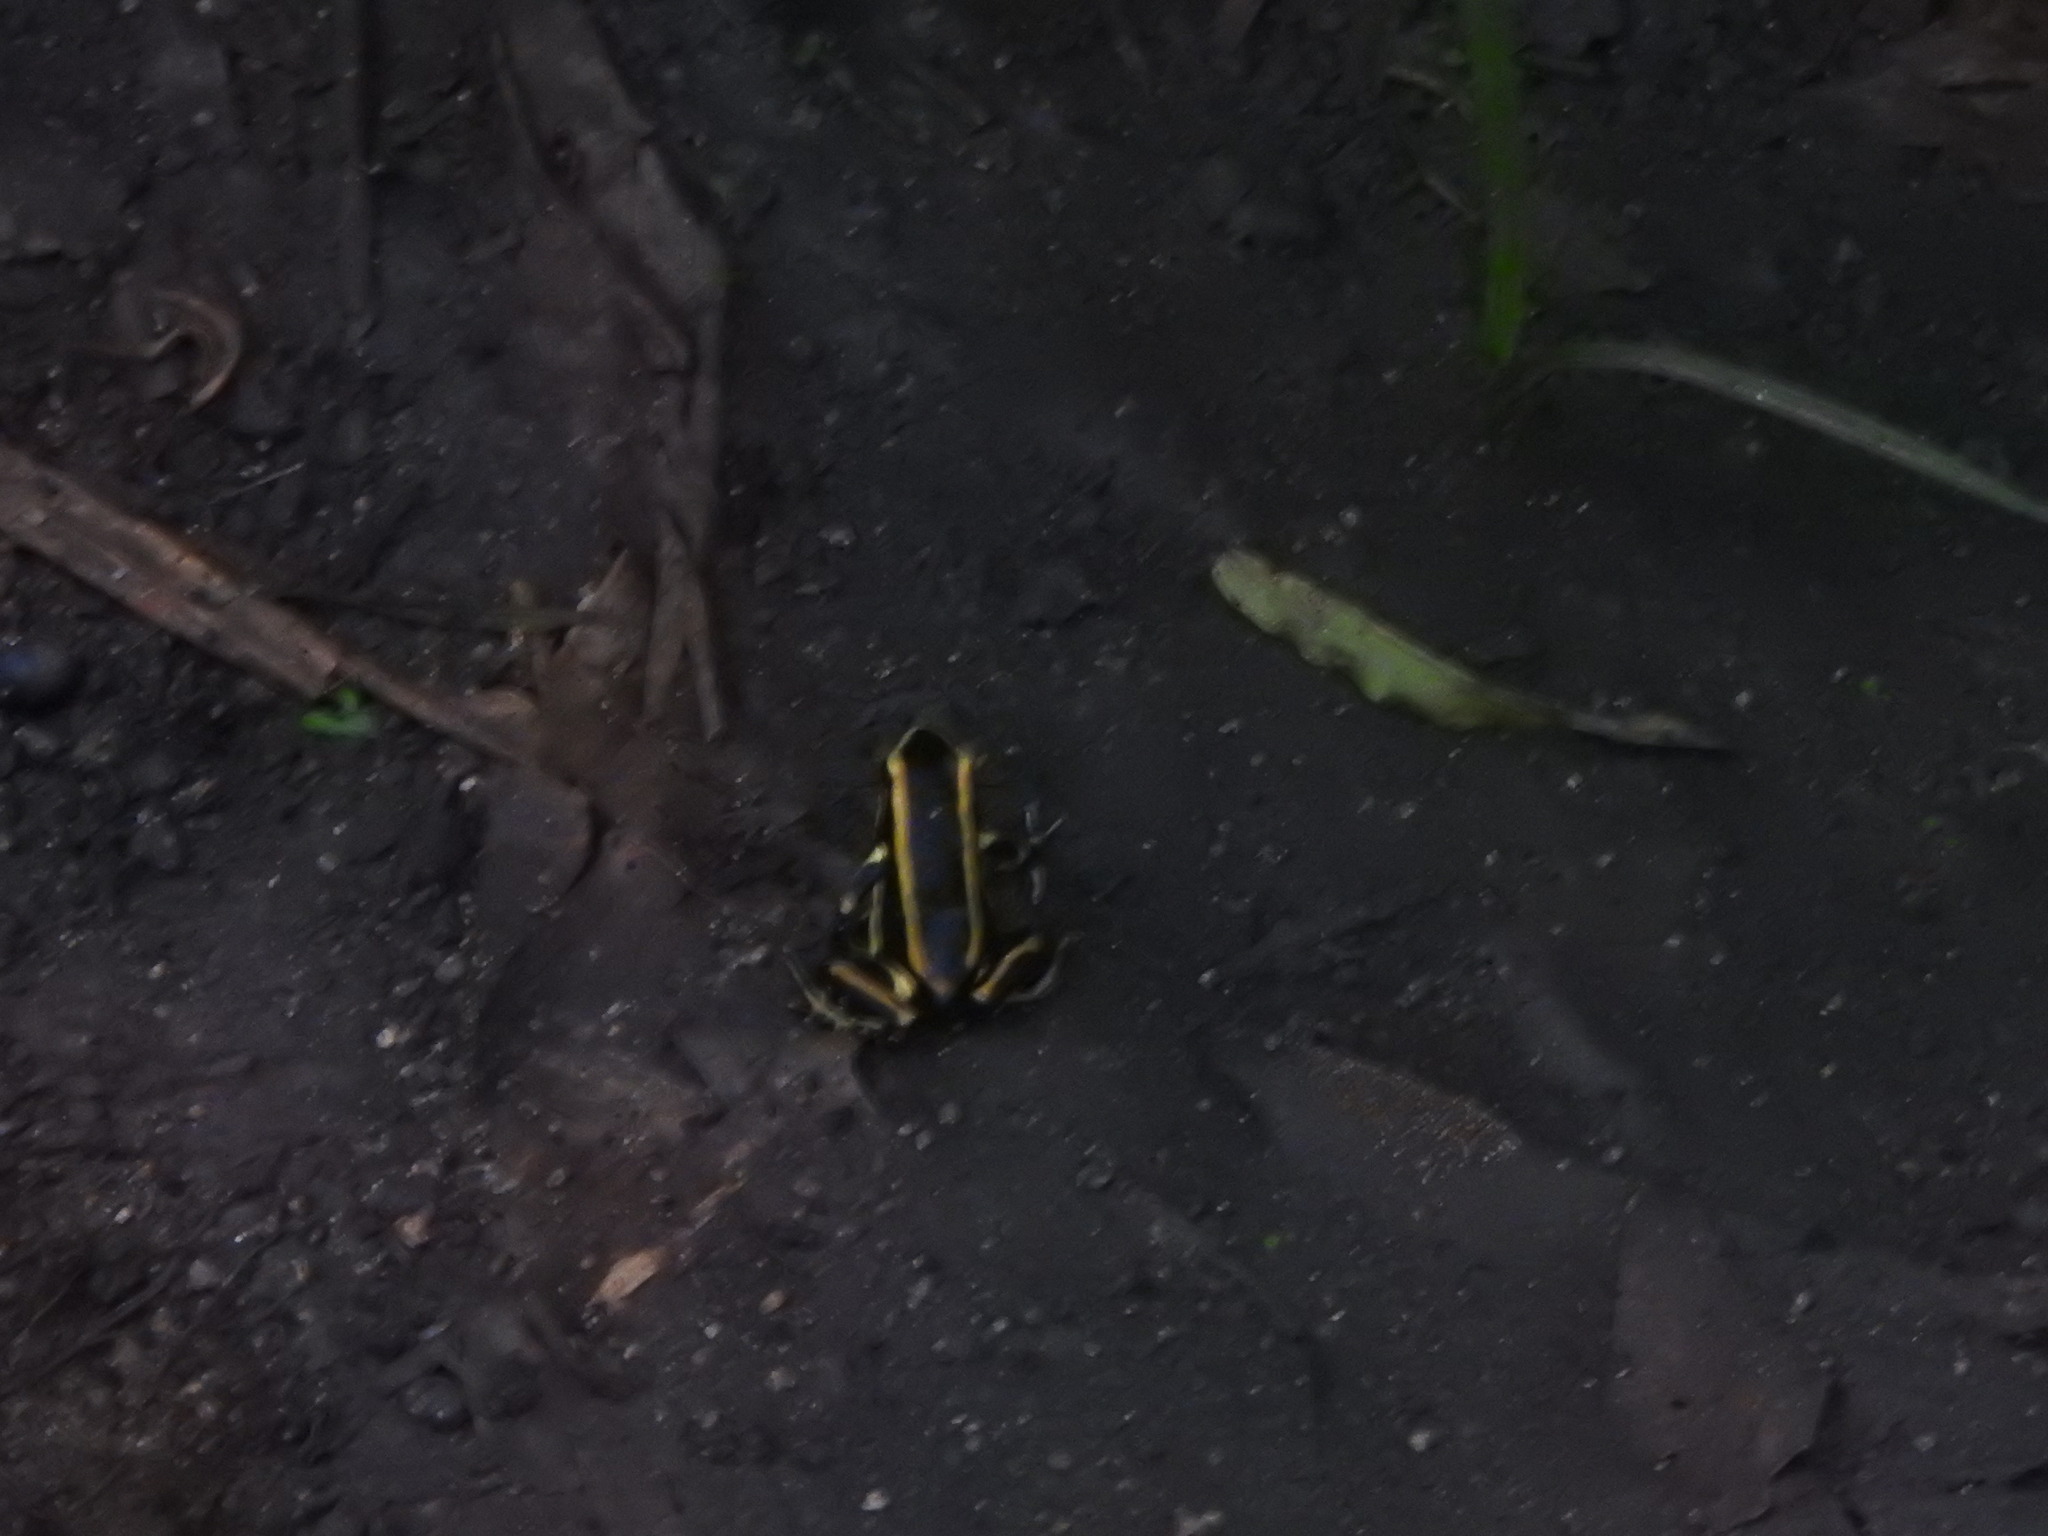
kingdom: Animalia
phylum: Chordata
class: Amphibia
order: Anura
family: Dendrobatidae
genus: Dendrobates
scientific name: Dendrobates truncatus
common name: Yellow-striped poison frog
